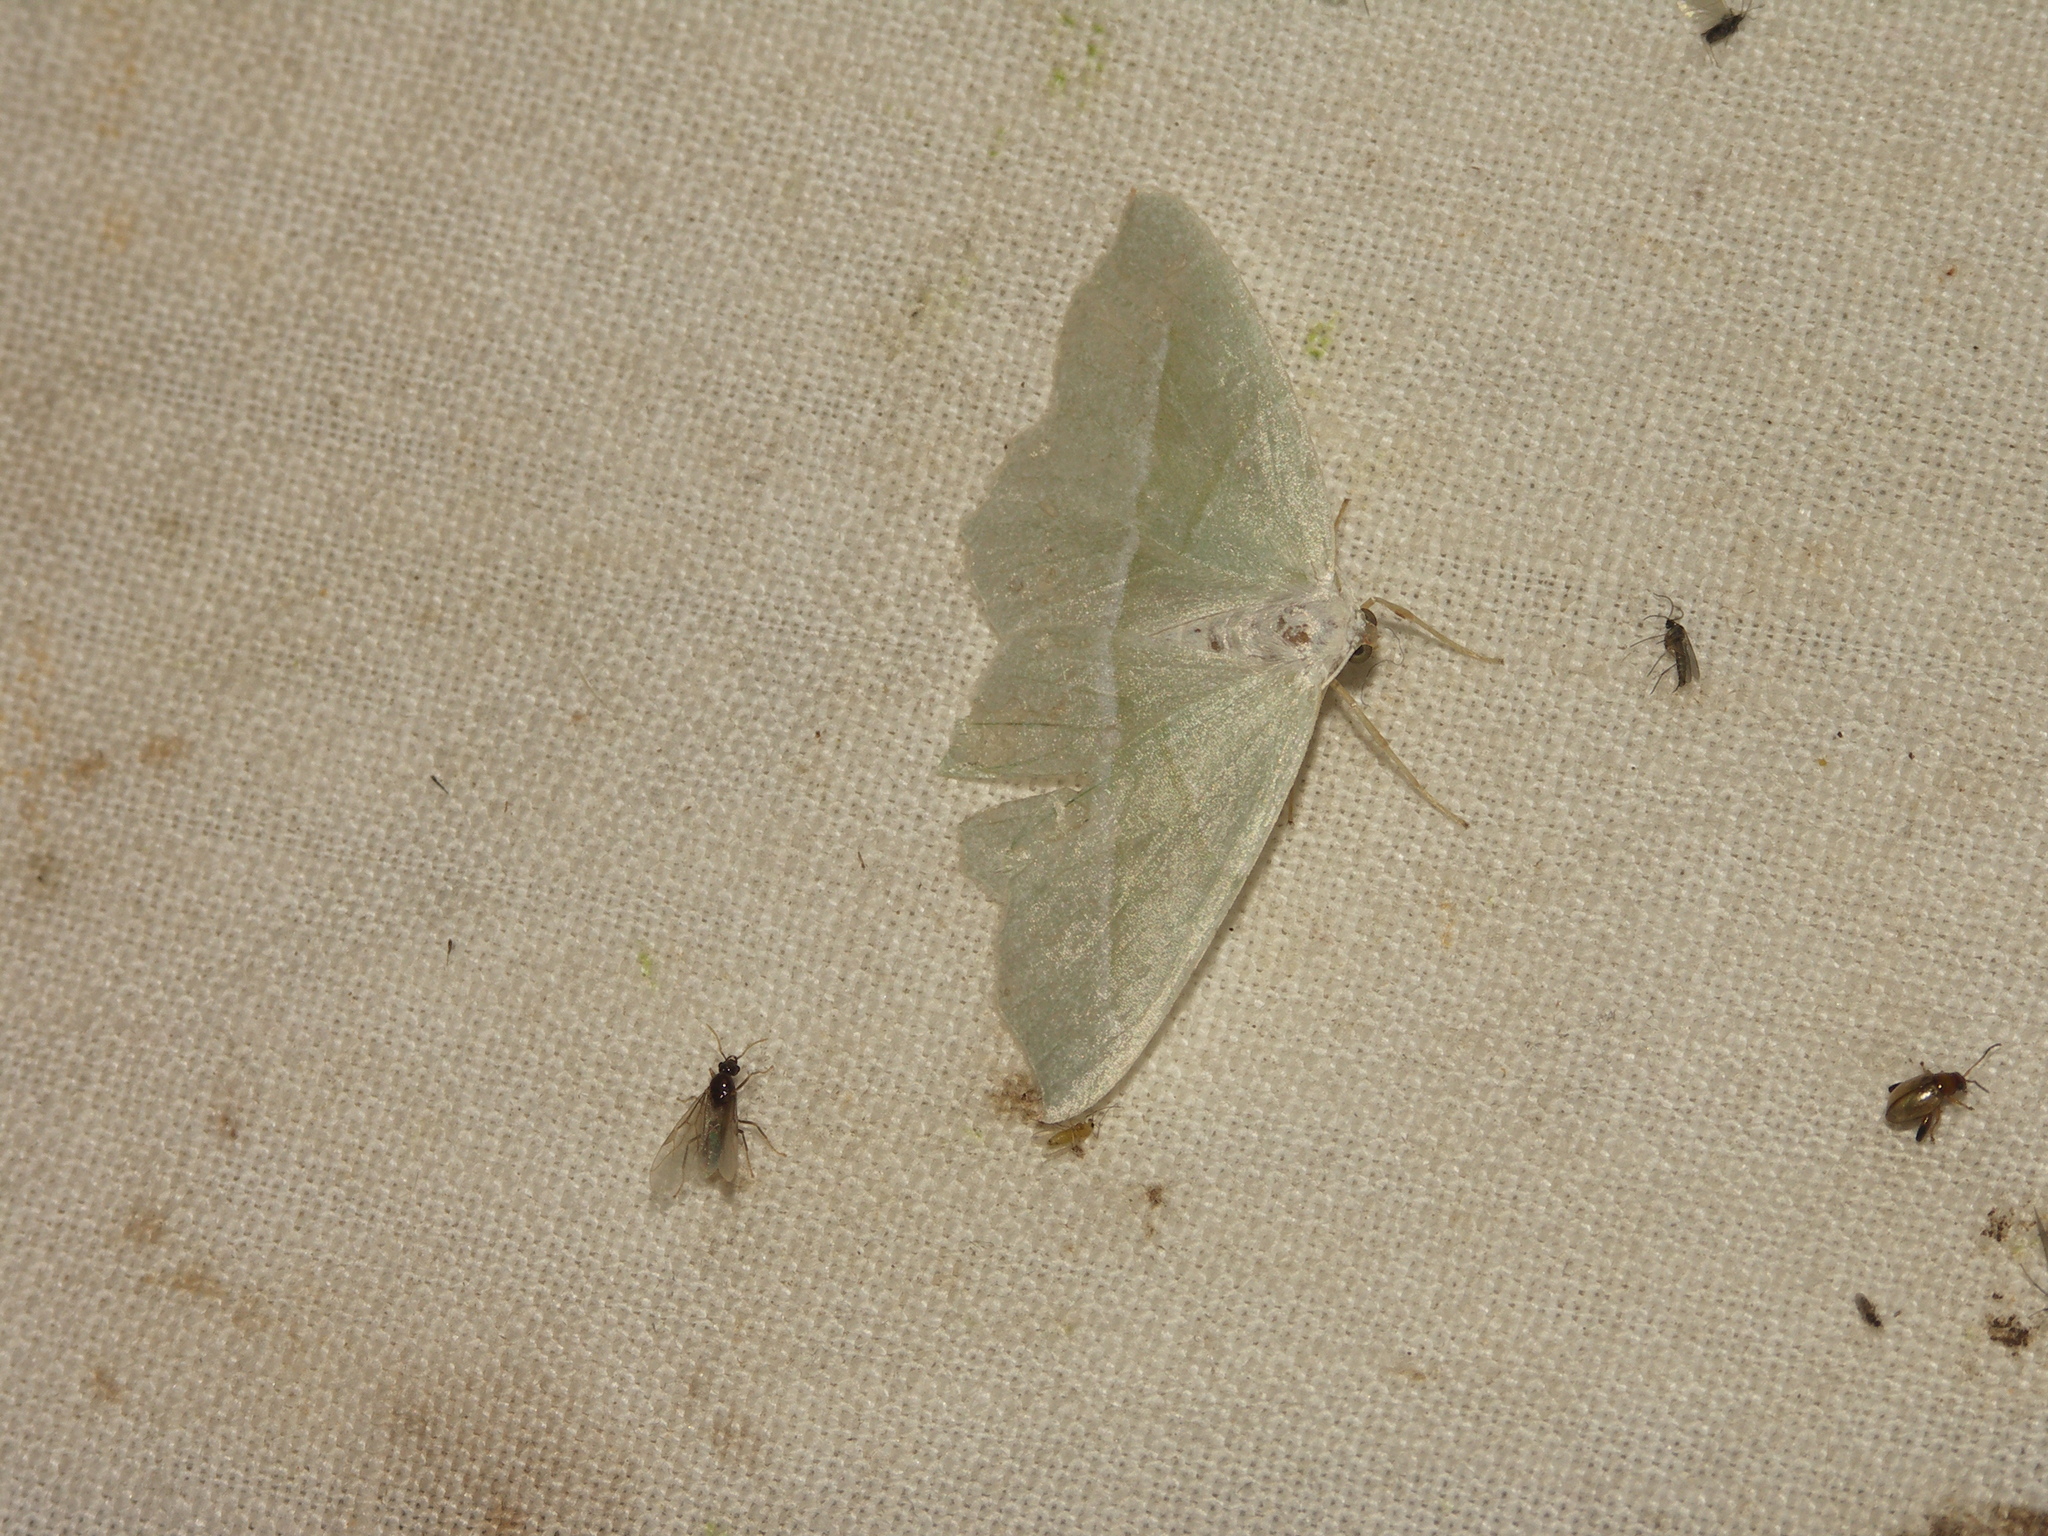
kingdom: Animalia
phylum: Arthropoda
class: Insecta
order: Lepidoptera
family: Geometridae
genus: Campaea
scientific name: Campaea margaritaria
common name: Light emerald
